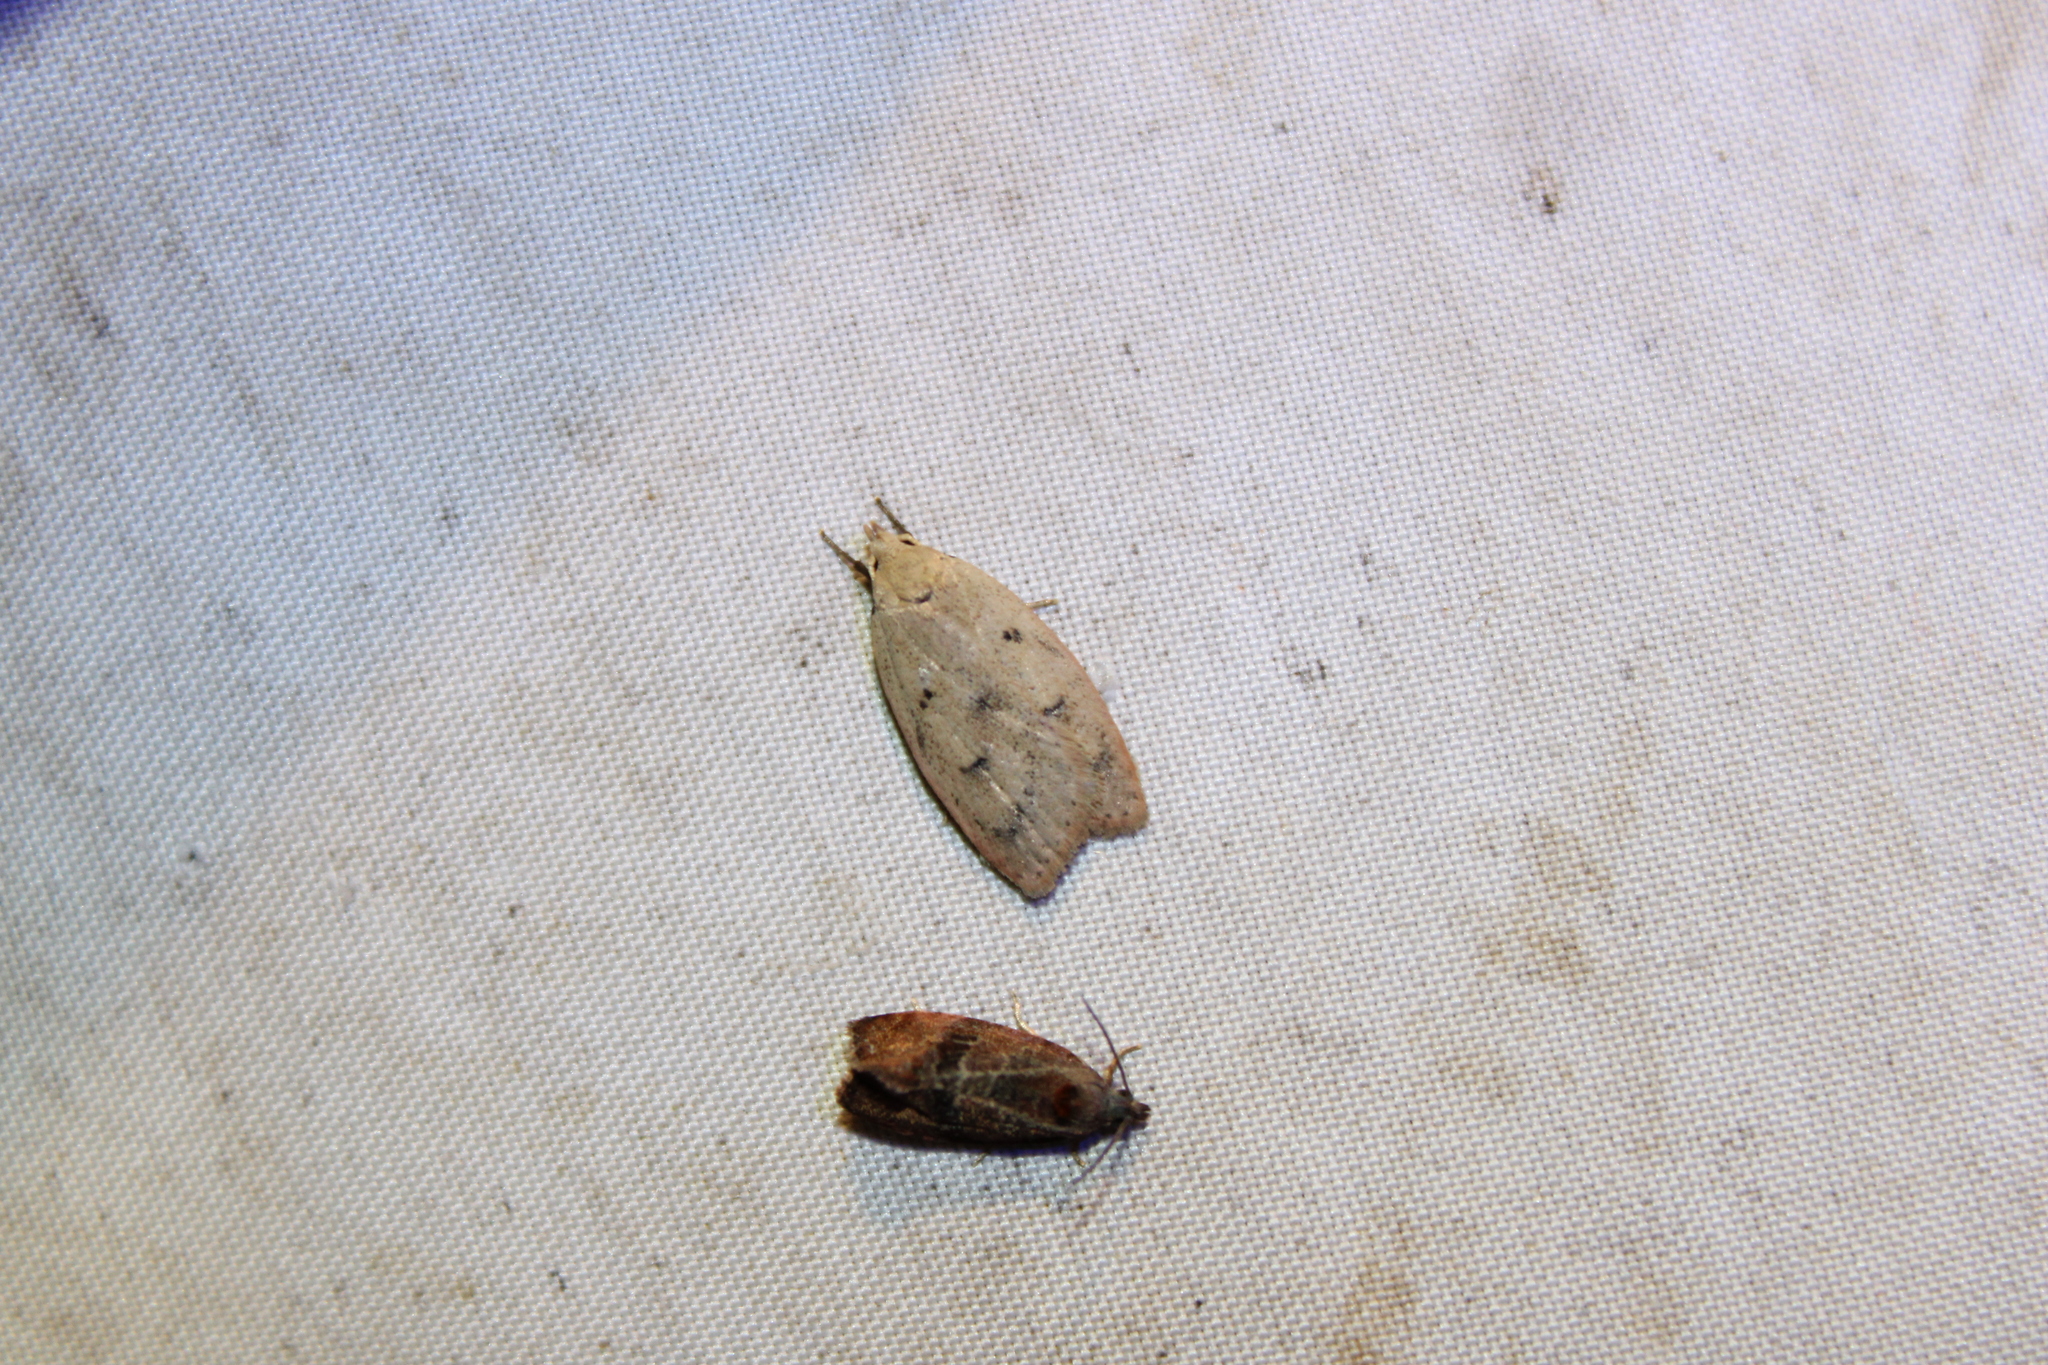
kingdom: Animalia
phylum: Arthropoda
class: Insecta
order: Lepidoptera
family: Peleopodidae
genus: Machimia
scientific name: Machimia tentoriferella
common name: Gold-striped leaftier moth
